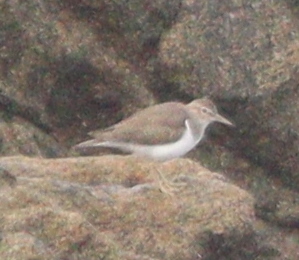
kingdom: Animalia
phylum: Chordata
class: Aves
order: Charadriiformes
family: Scolopacidae
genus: Actitis
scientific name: Actitis hypoleucos
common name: Common sandpiper
